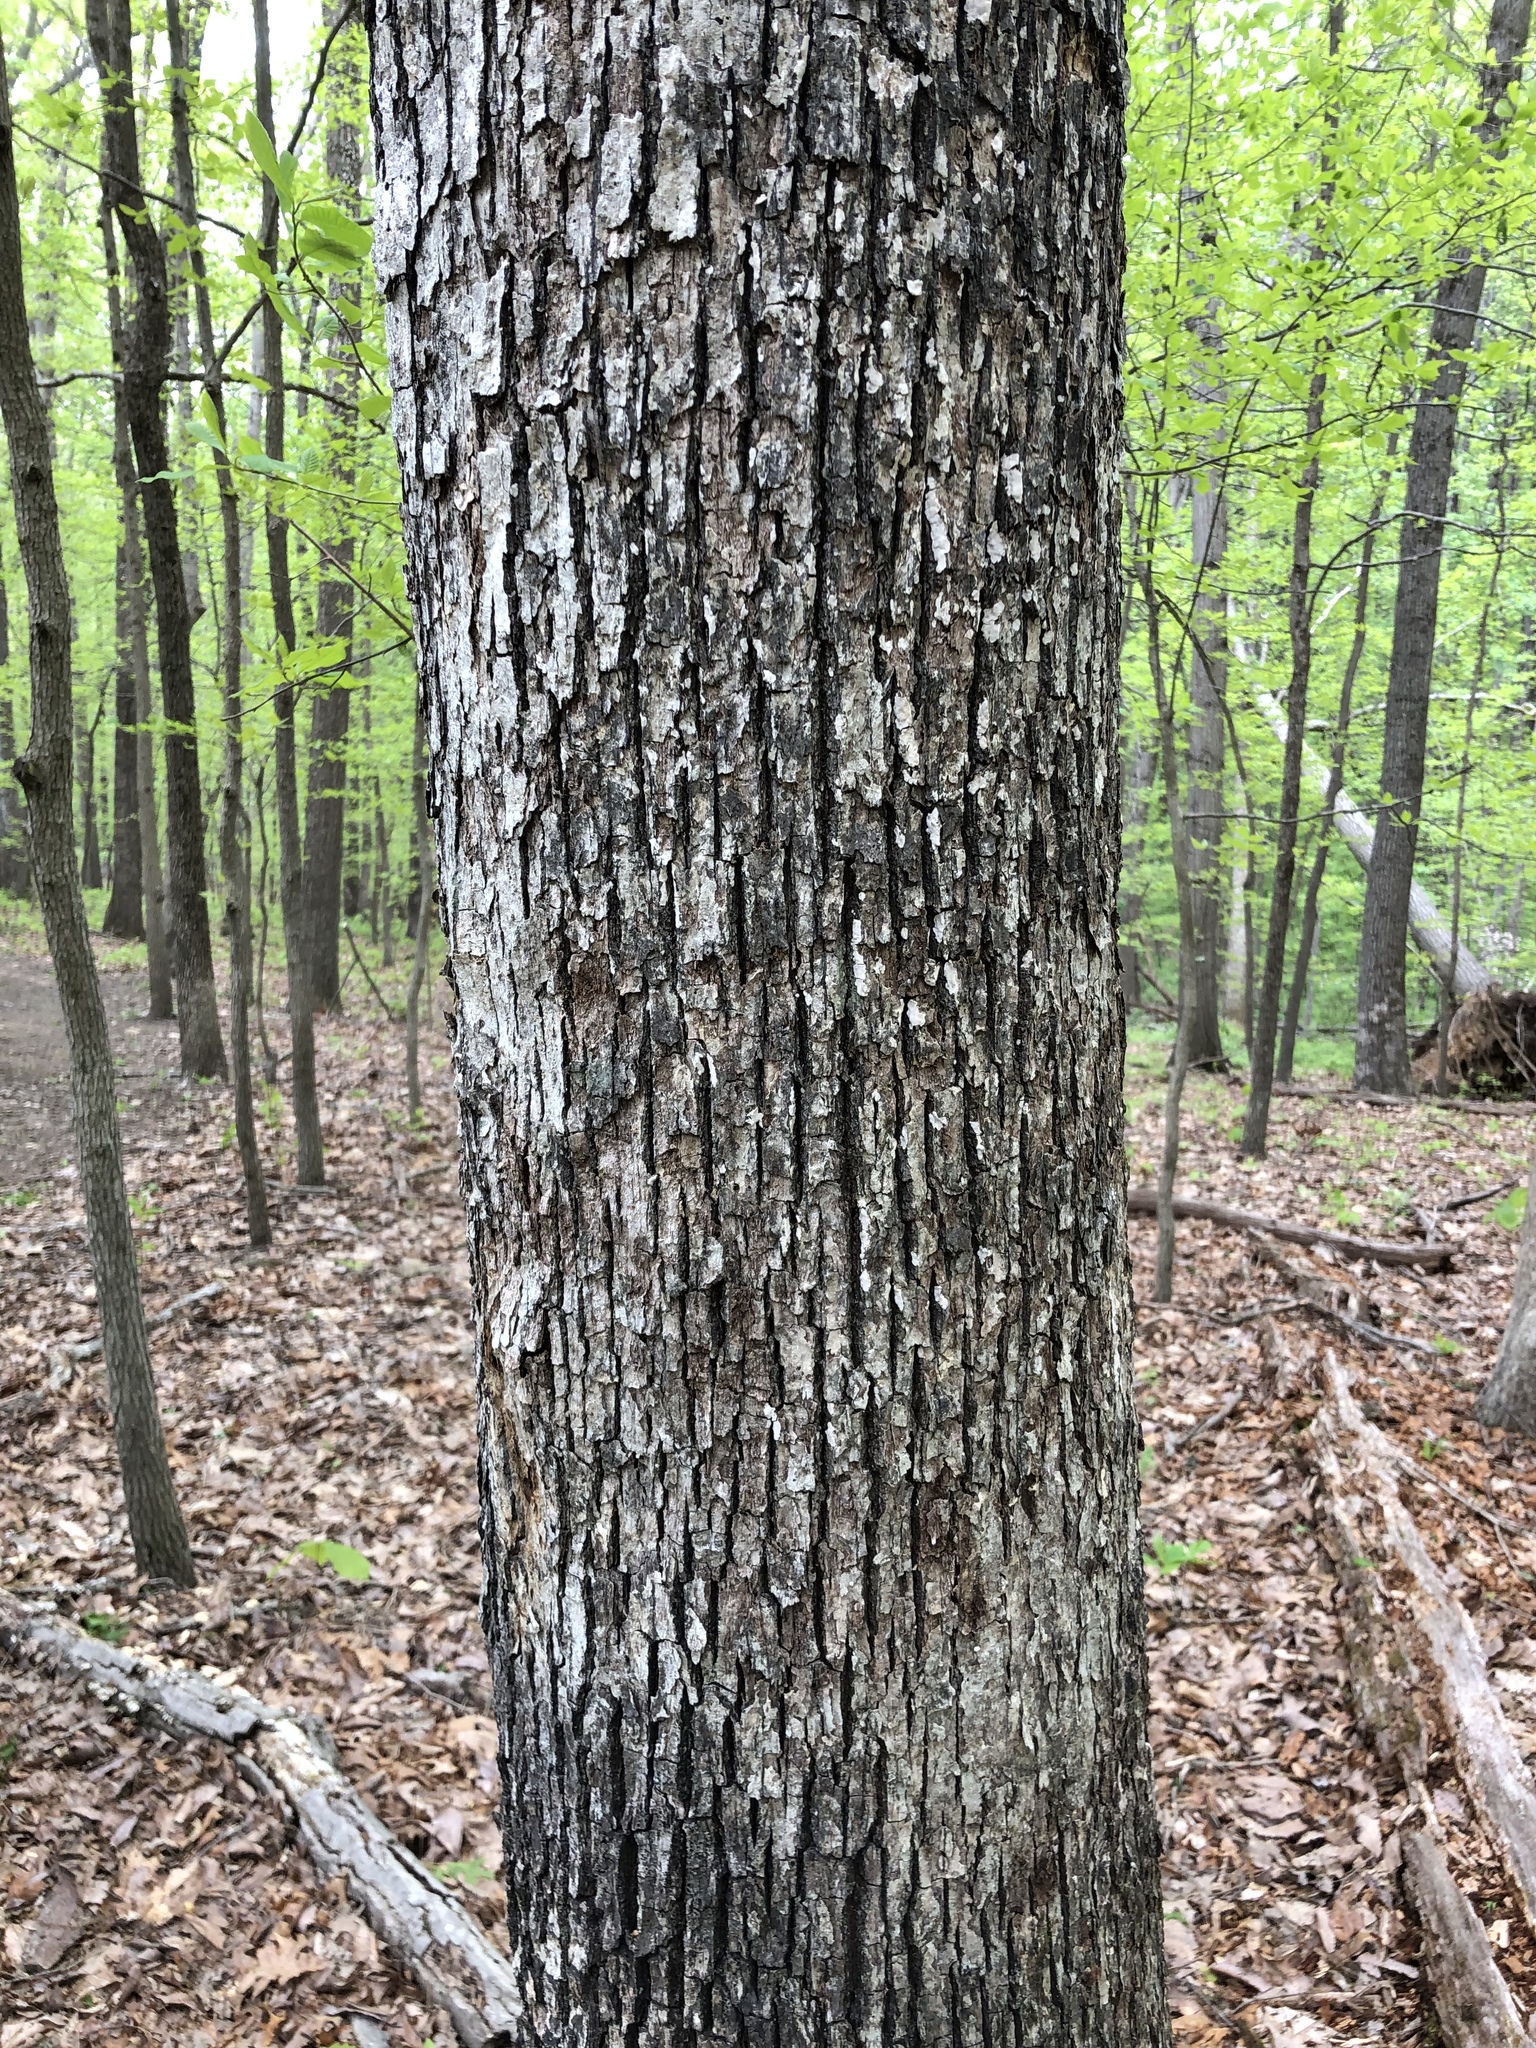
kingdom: Plantae
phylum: Tracheophyta
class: Magnoliopsida
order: Fagales
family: Fagaceae
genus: Quercus
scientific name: Quercus alba
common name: White oak
